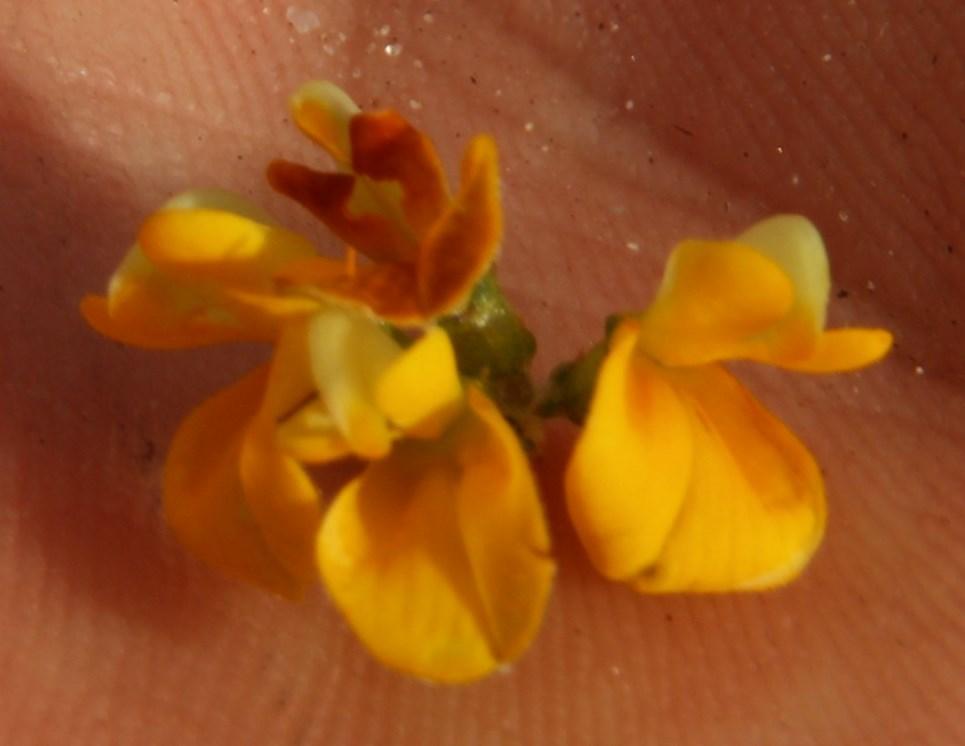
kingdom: Plantae
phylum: Tracheophyta
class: Magnoliopsida
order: Fabales
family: Fabaceae
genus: Aspalathus
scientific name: Aspalathus divaricata
